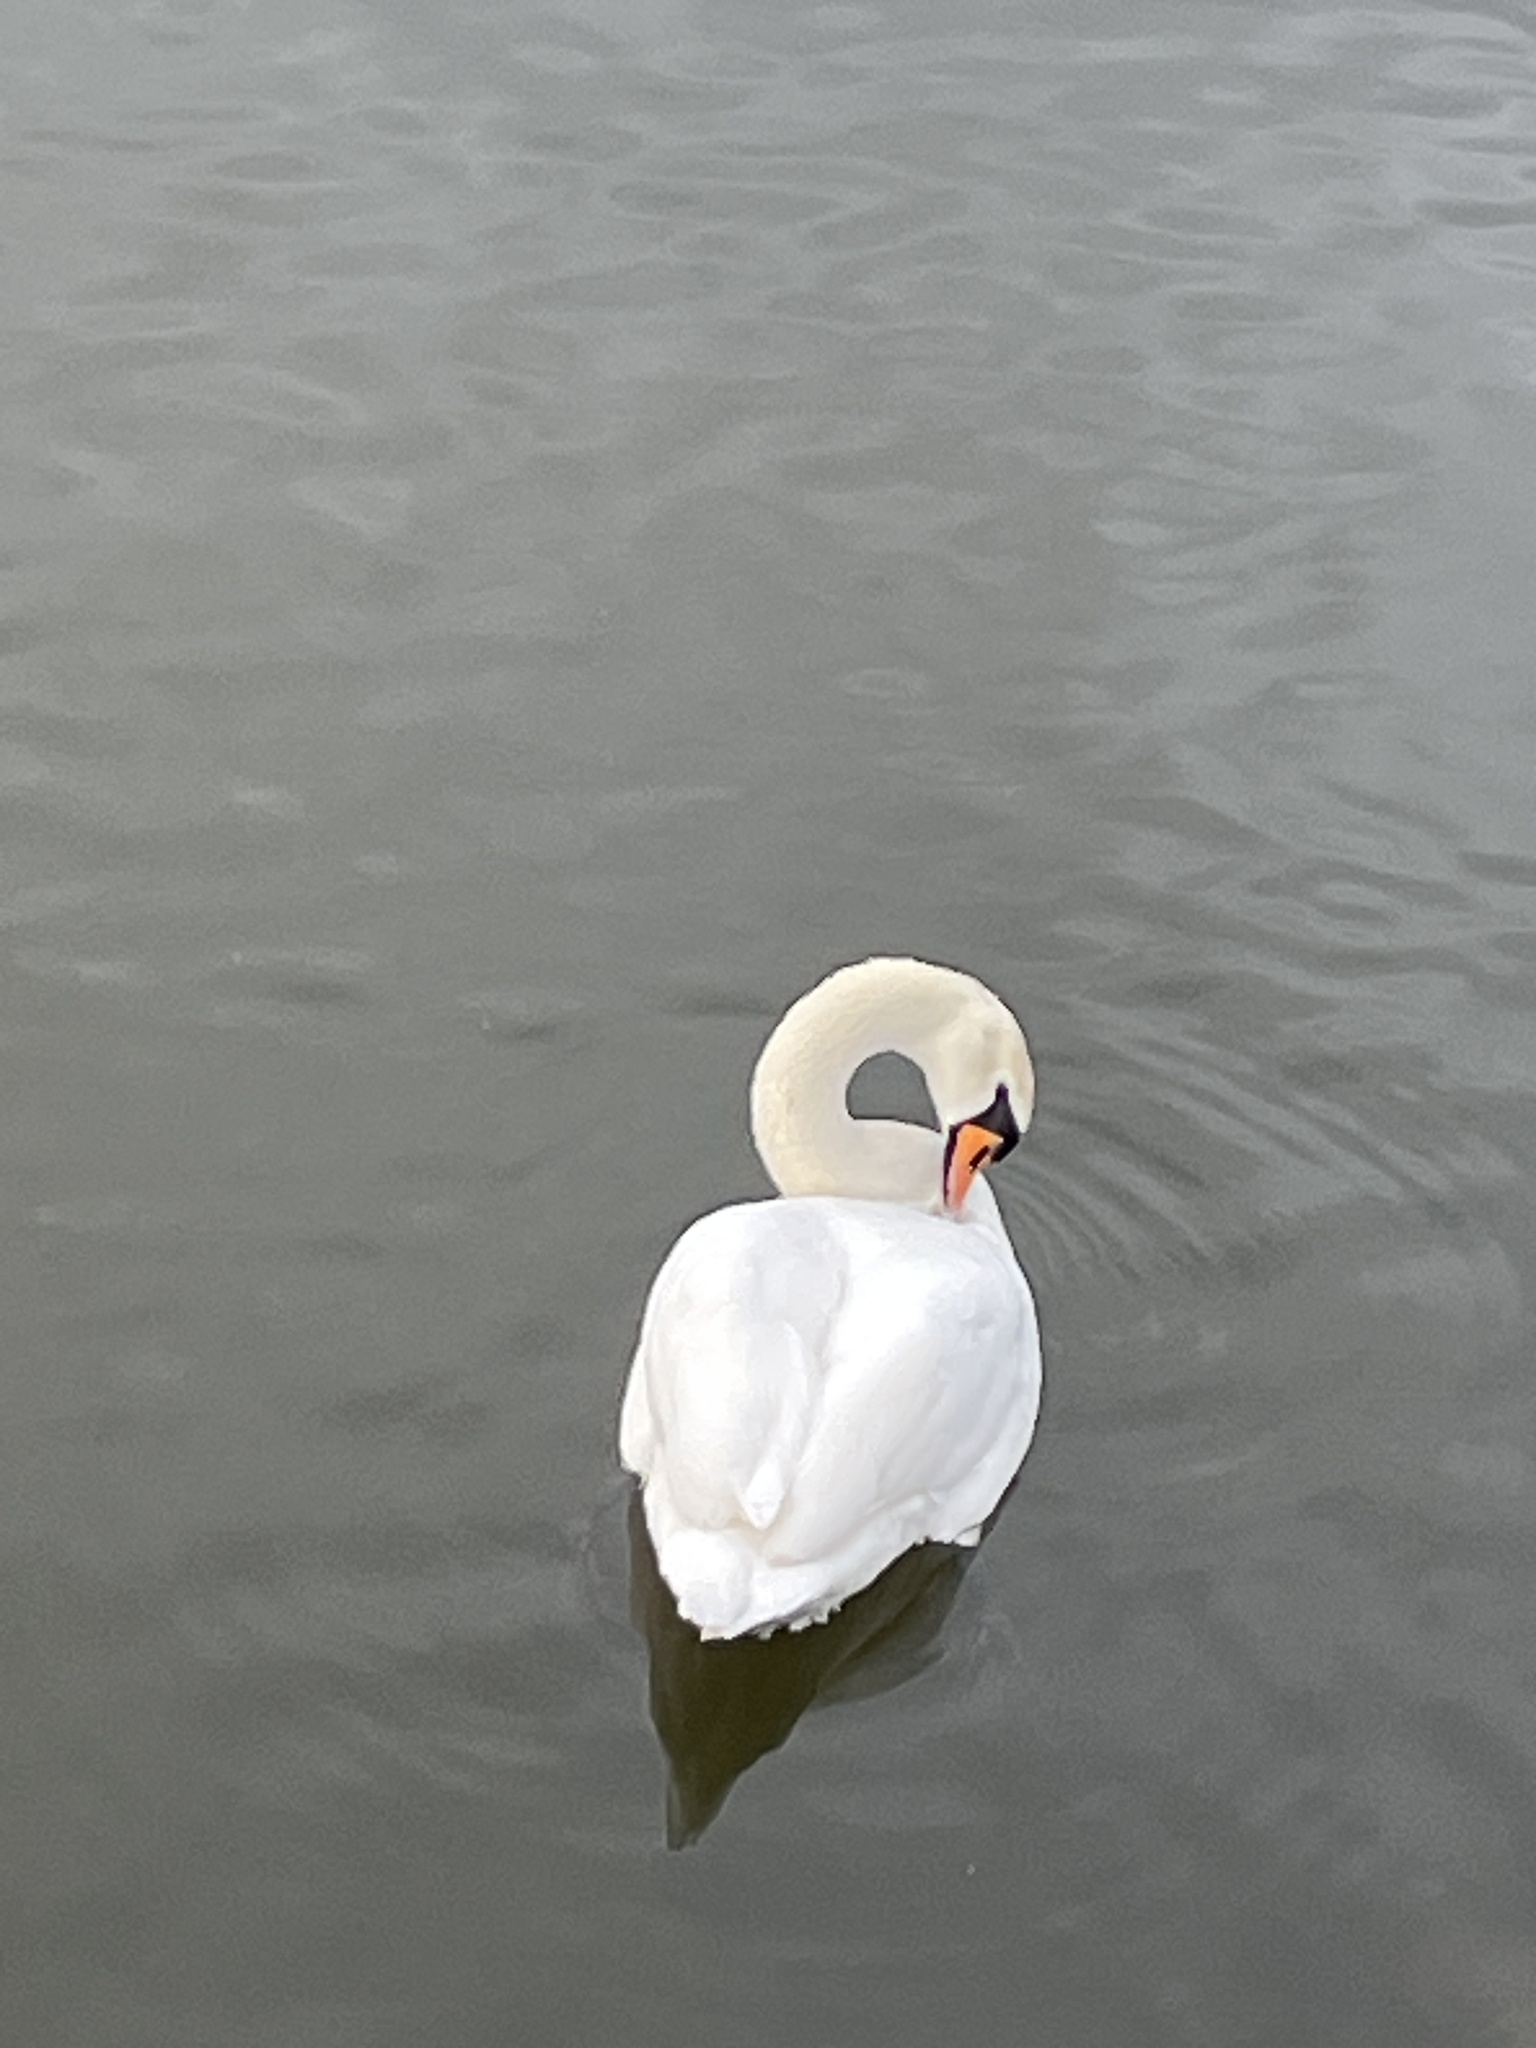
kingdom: Animalia
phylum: Chordata
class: Aves
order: Anseriformes
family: Anatidae
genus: Cygnus
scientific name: Cygnus olor
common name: Mute swan
